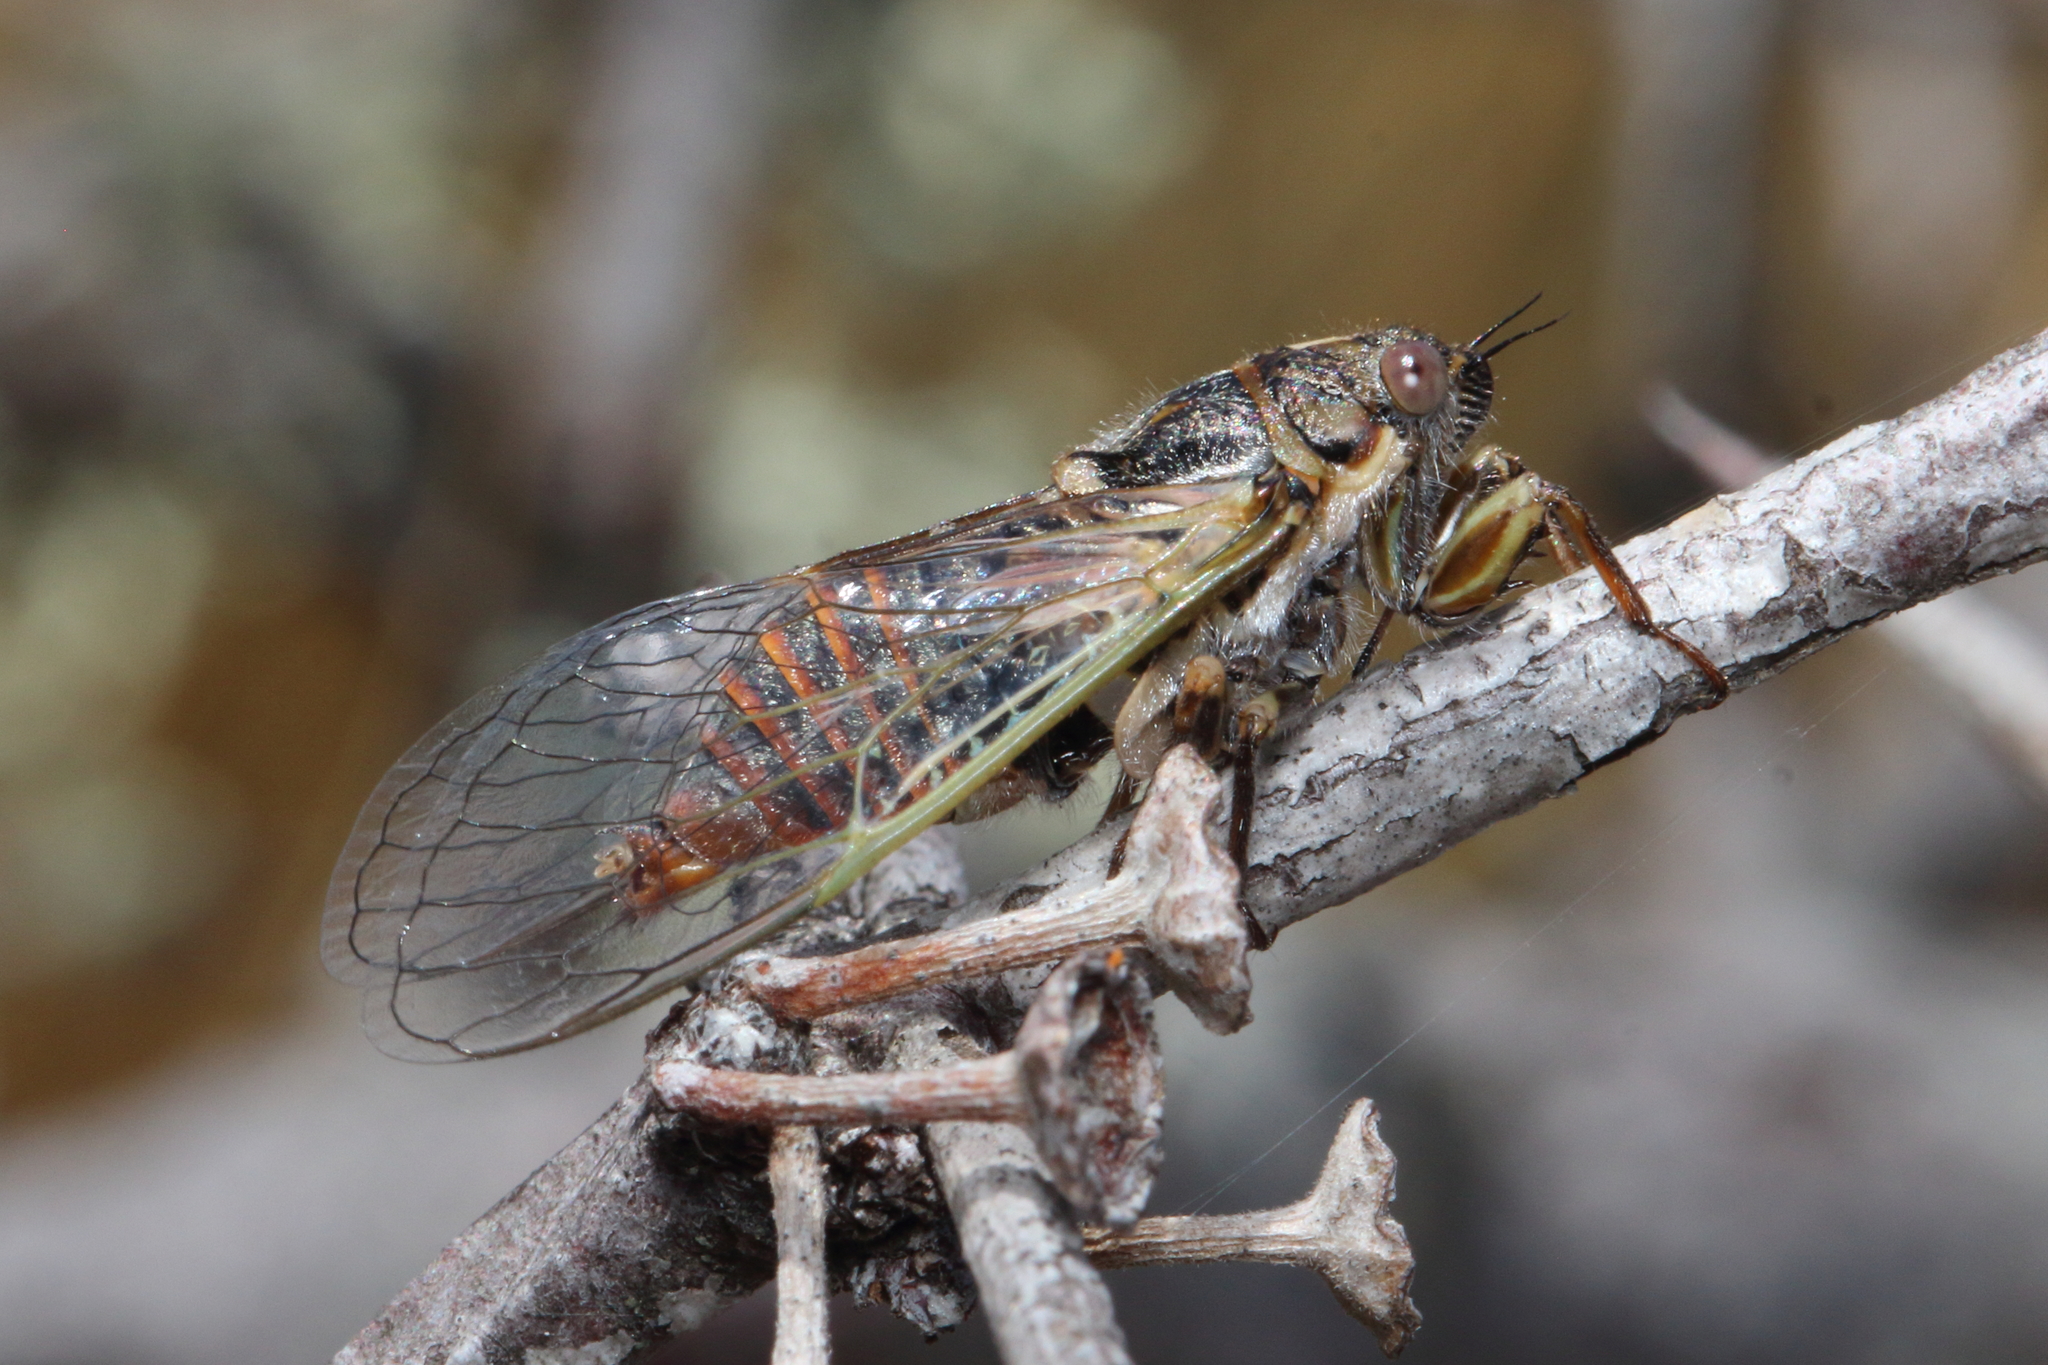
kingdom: Animalia
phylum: Arthropoda
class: Insecta
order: Hemiptera
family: Cicadidae
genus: Rhodopsalta
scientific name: Rhodopsalta cruentata
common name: Blood redtail cicada
